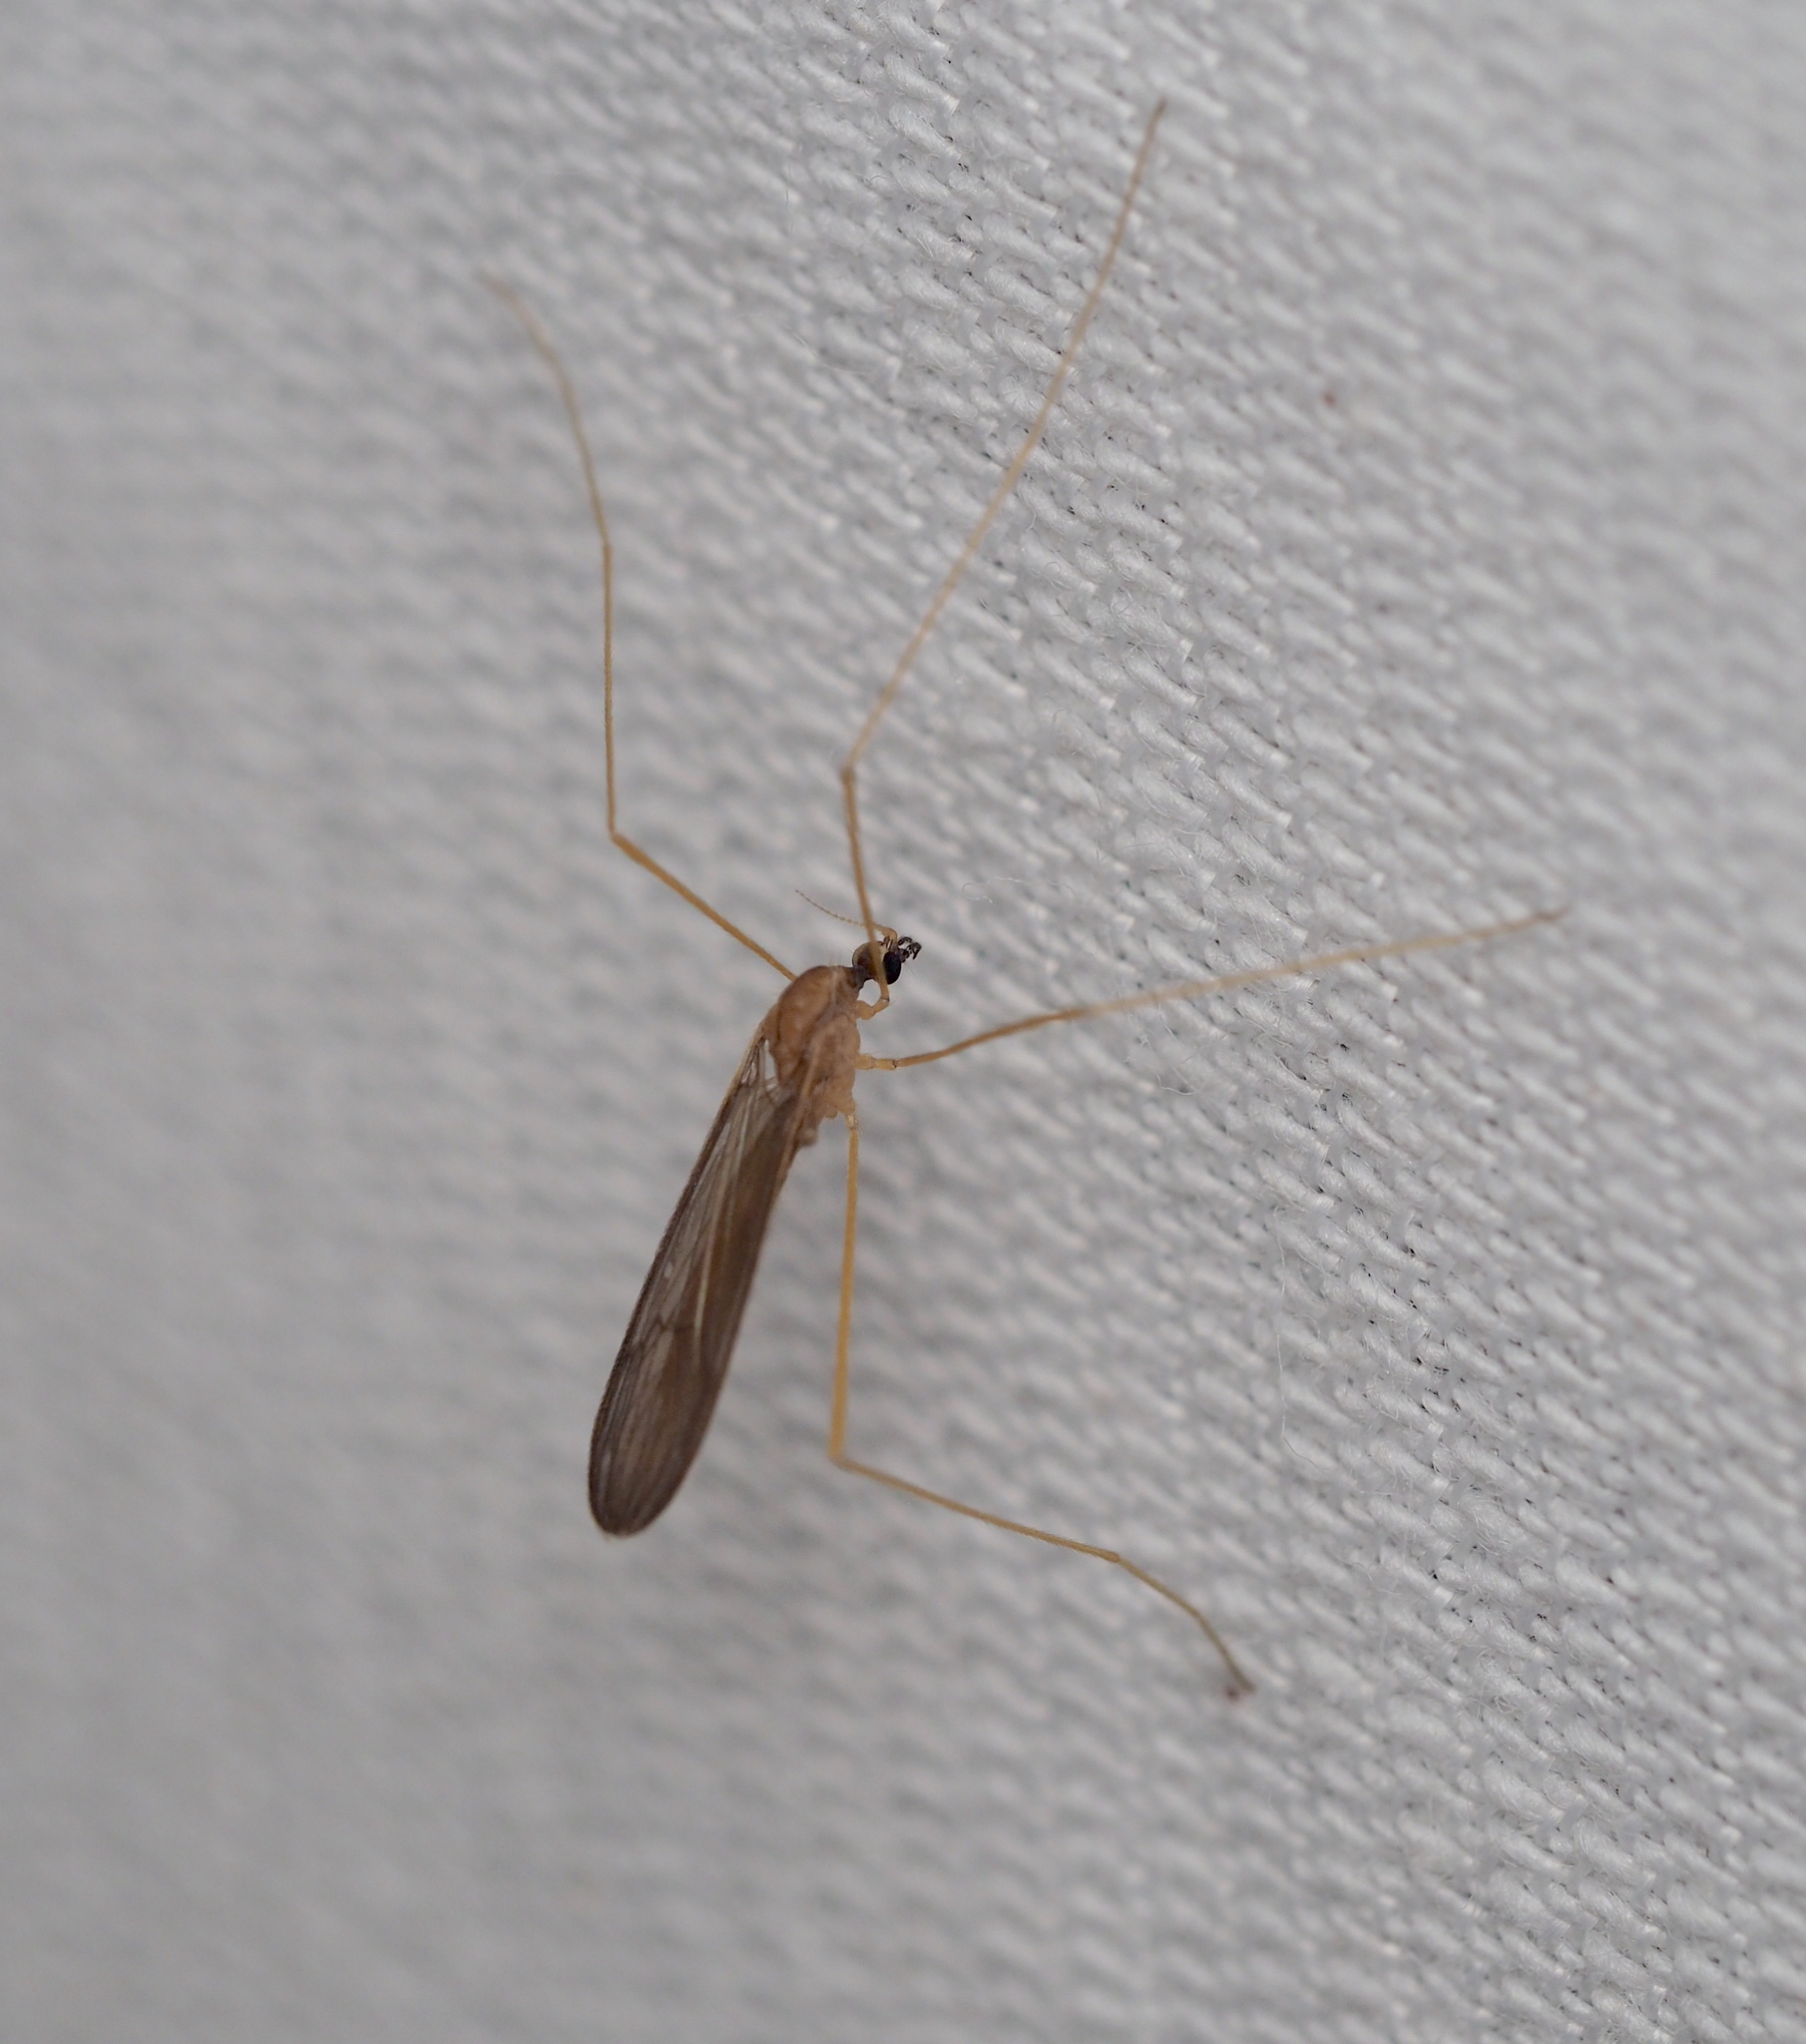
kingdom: Animalia
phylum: Arthropoda
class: Insecta
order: Diptera
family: Limoniidae
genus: Erioptera
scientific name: Erioptera limbata
